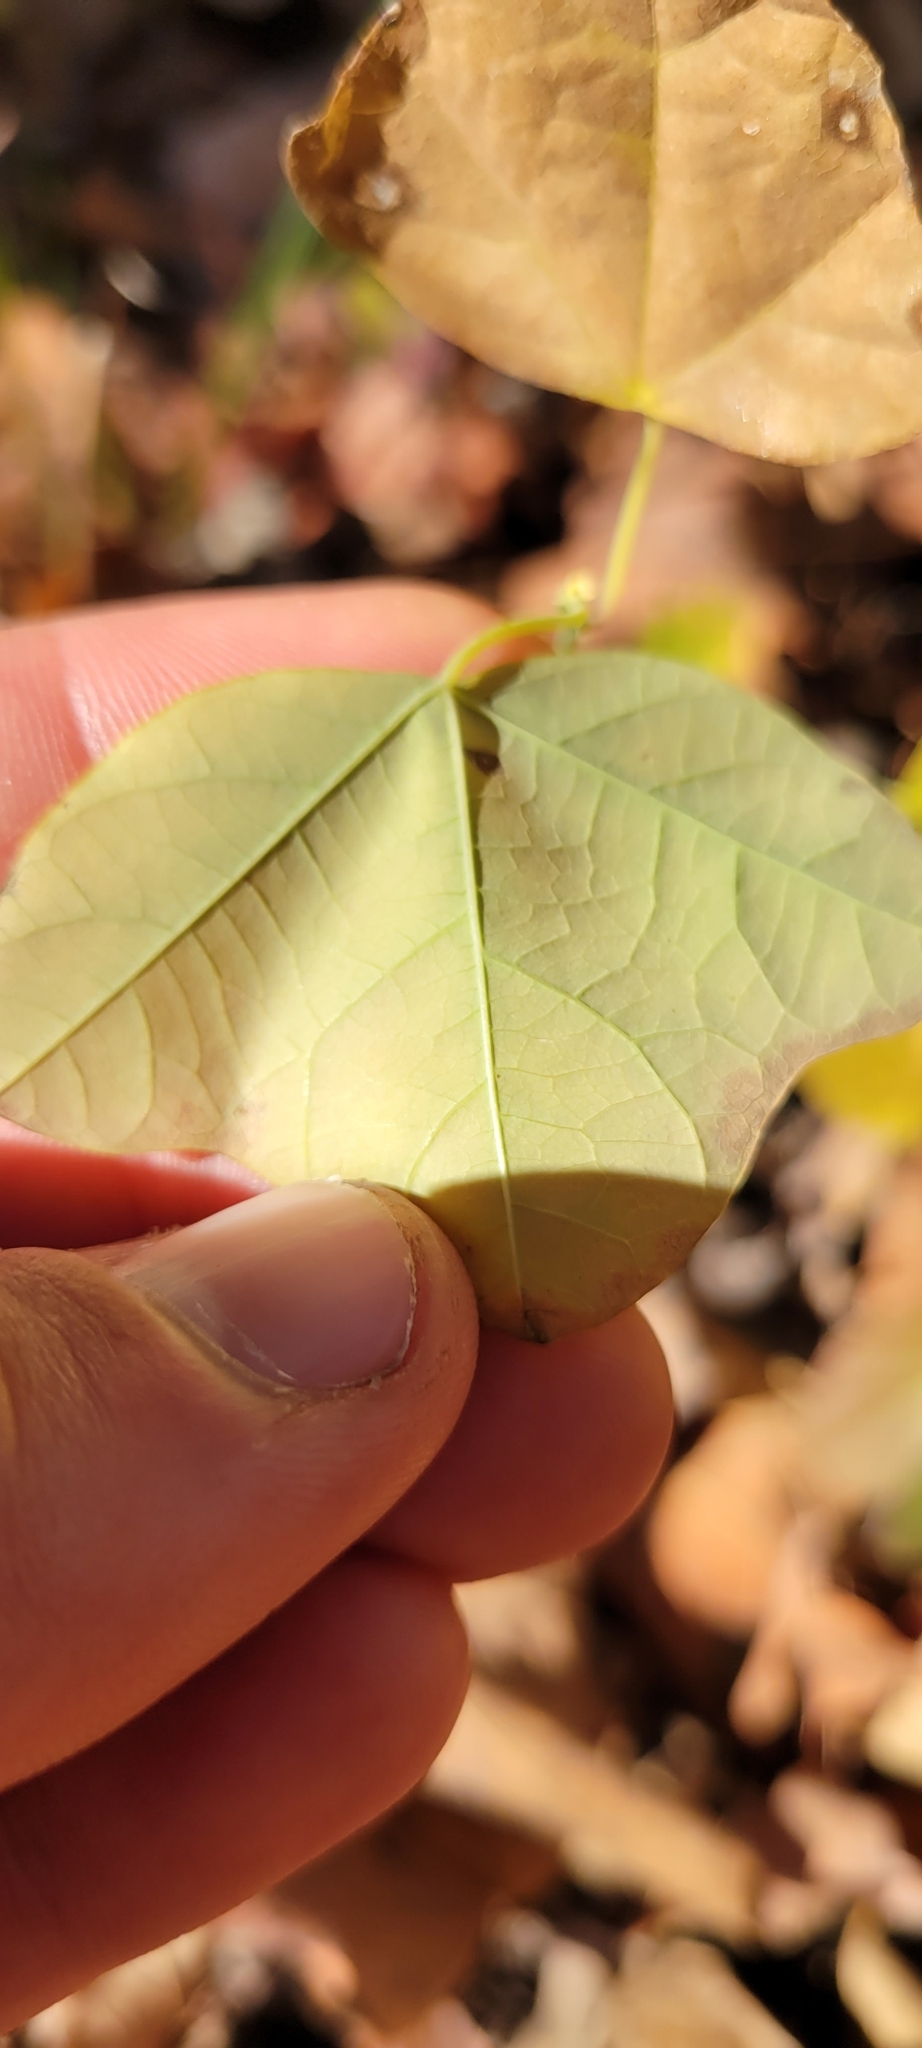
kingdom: Plantae
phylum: Tracheophyta
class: Magnoliopsida
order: Malpighiales
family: Passifloraceae
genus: Passiflora
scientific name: Passiflora lutea
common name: Yellow passionflower
